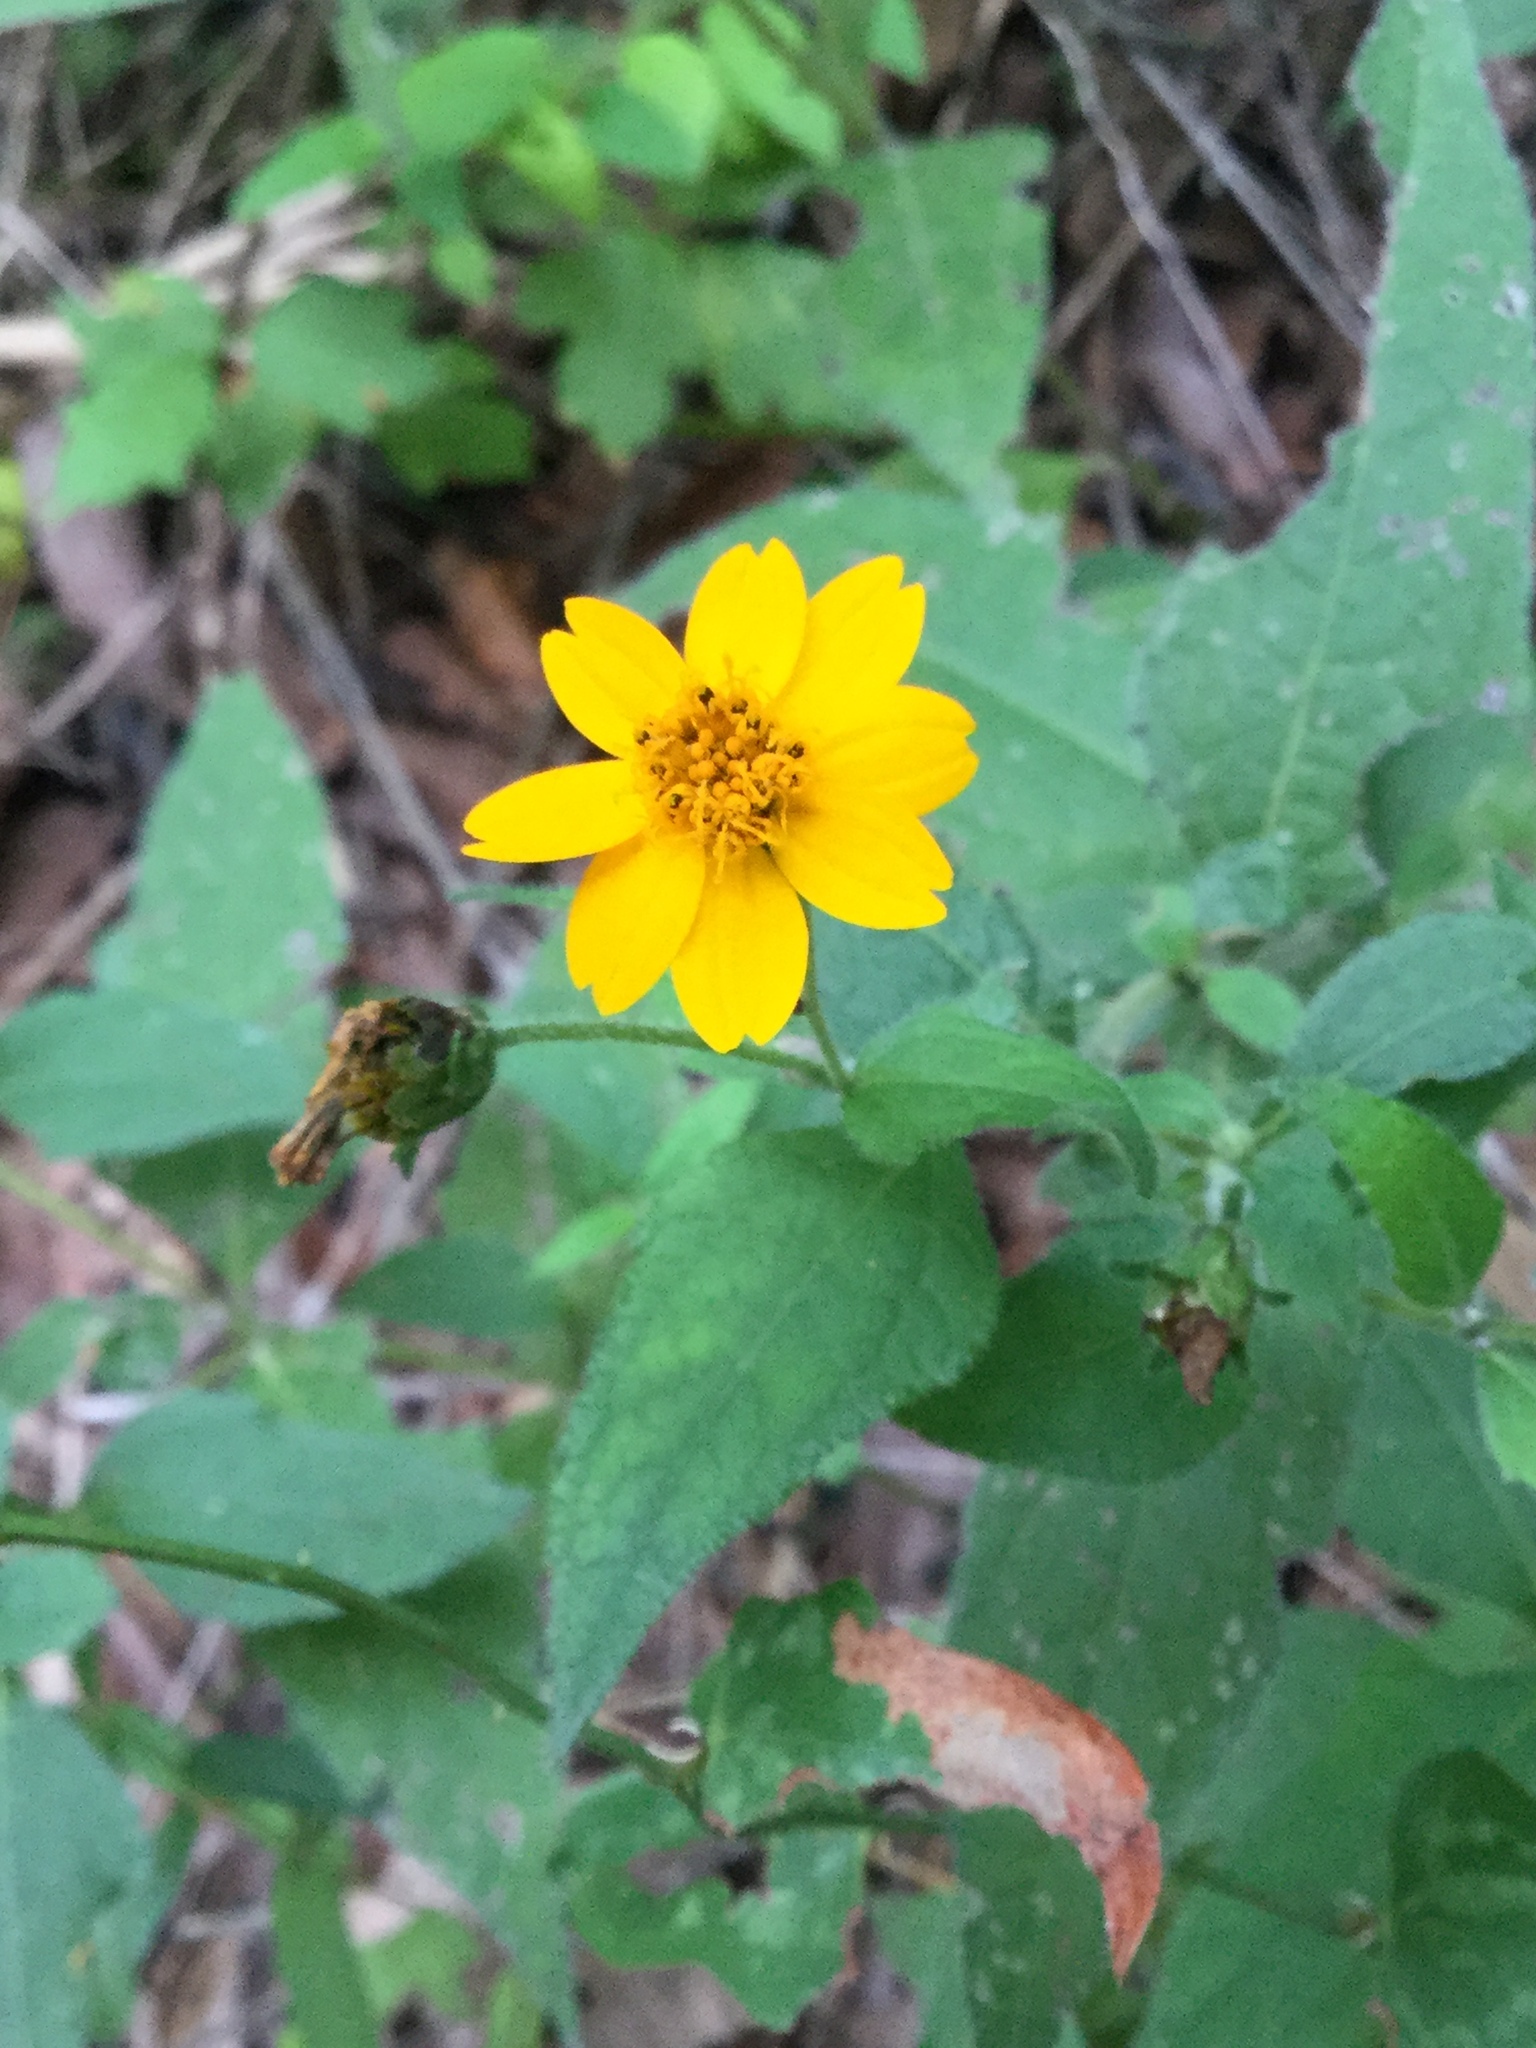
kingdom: Plantae
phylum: Tracheophyta
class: Magnoliopsida
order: Asterales
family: Asteraceae
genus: Wedelia
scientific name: Wedelia acapulcensis
